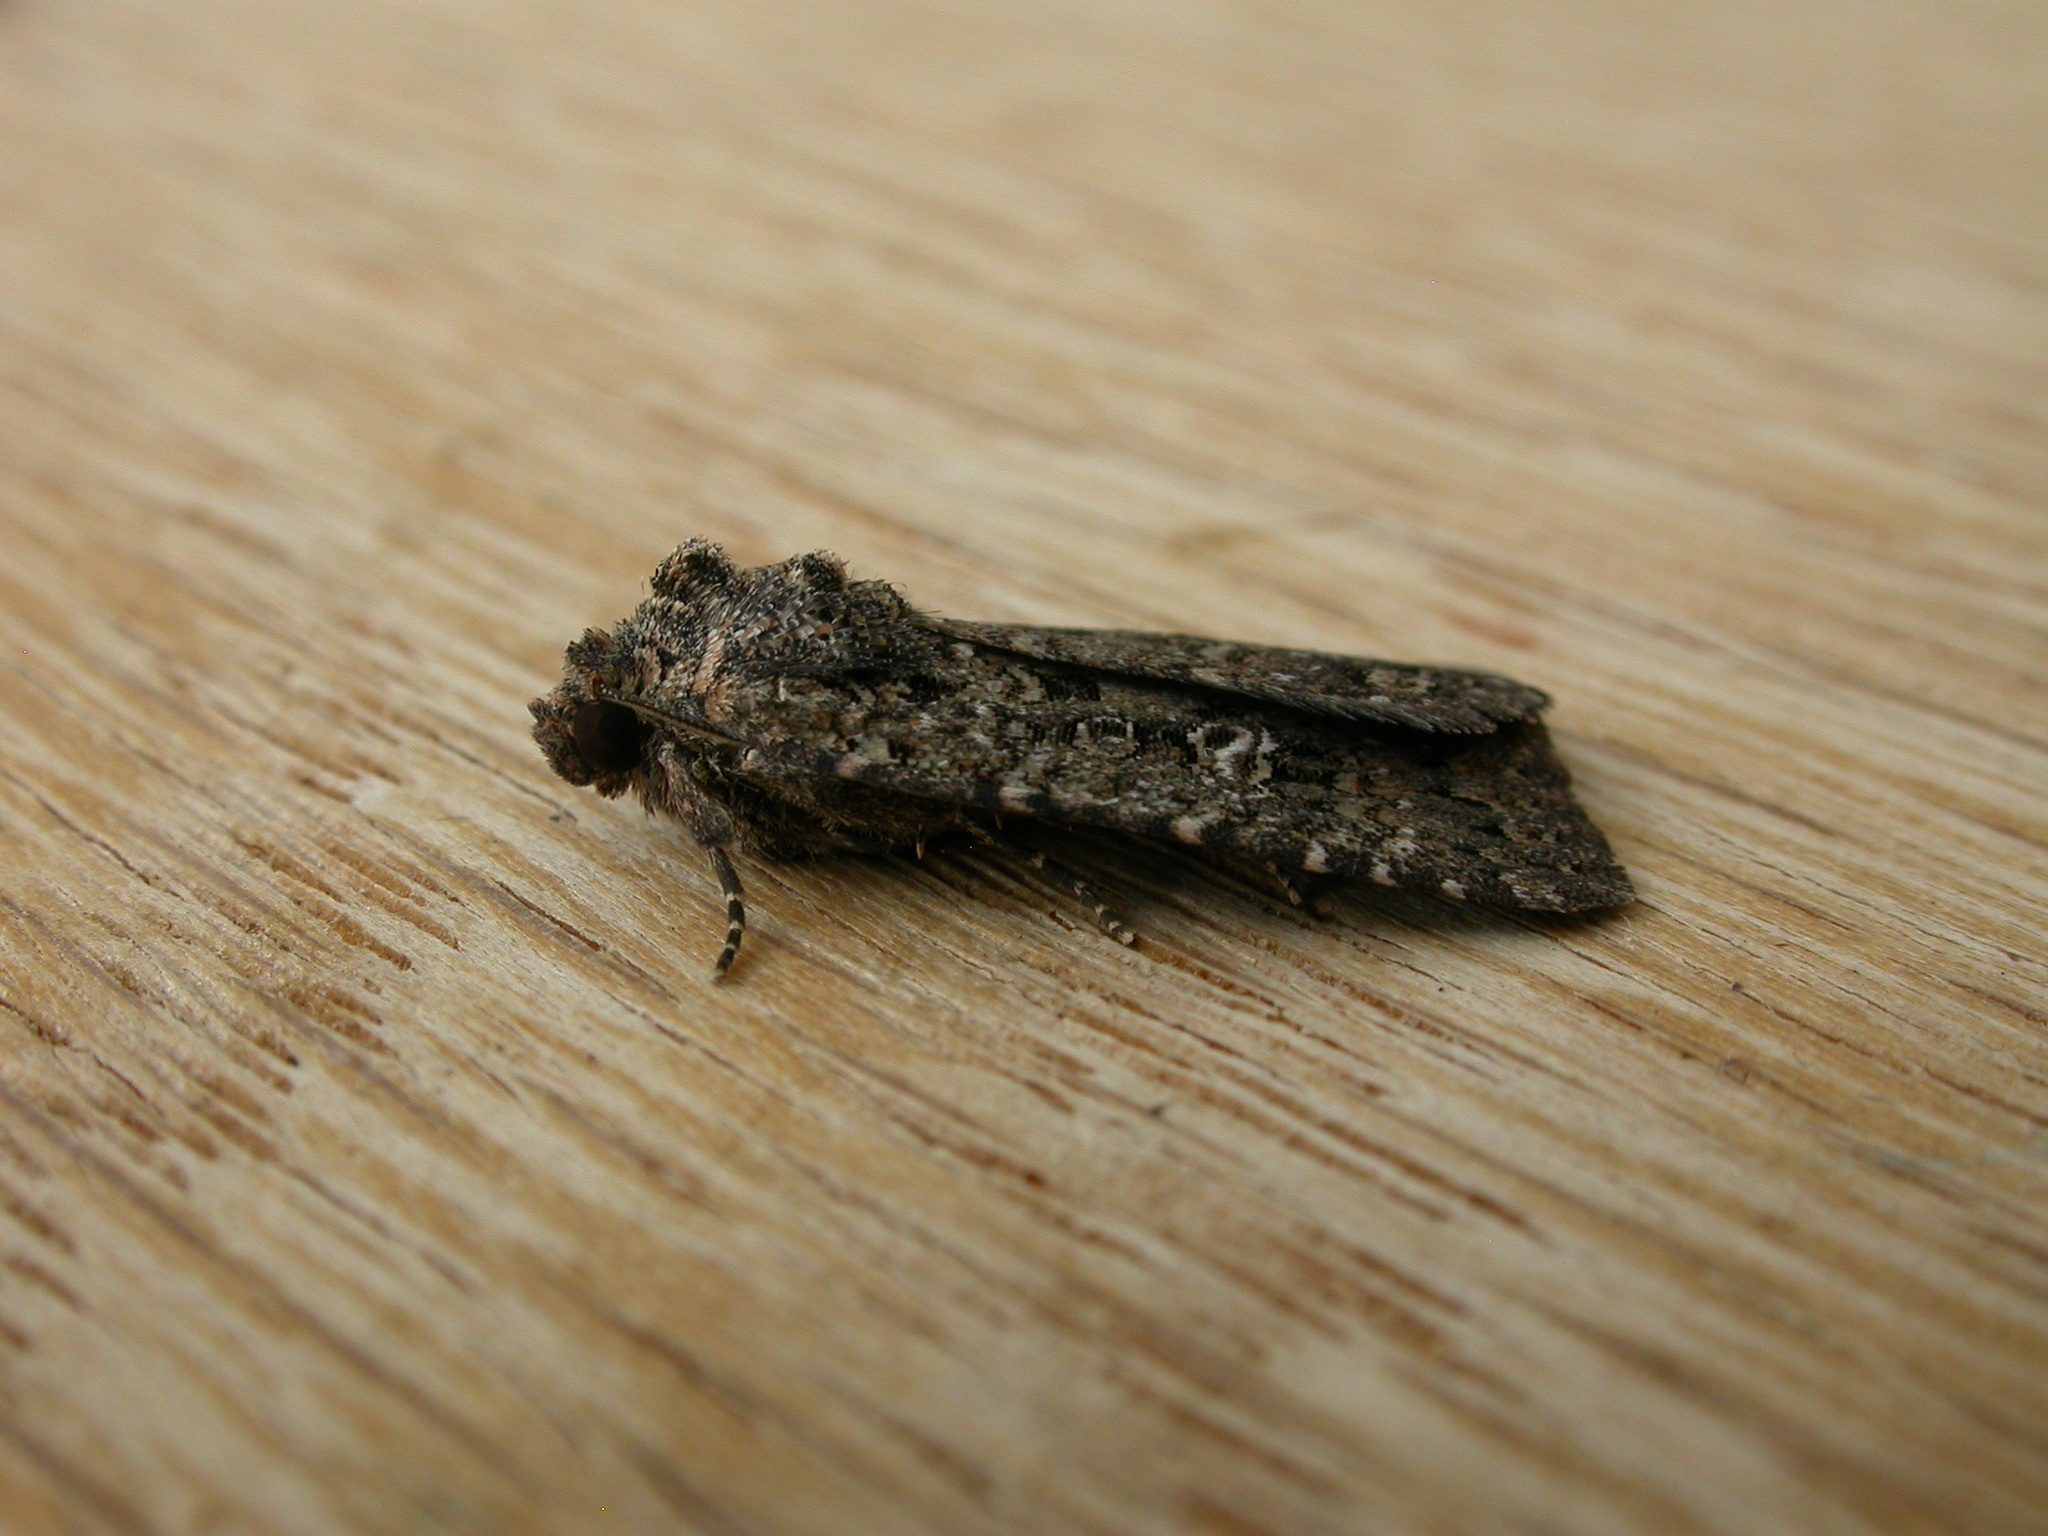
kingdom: Animalia
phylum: Arthropoda
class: Insecta
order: Lepidoptera
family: Noctuidae
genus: Hypoperigea
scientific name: Hypoperigea tonsa
